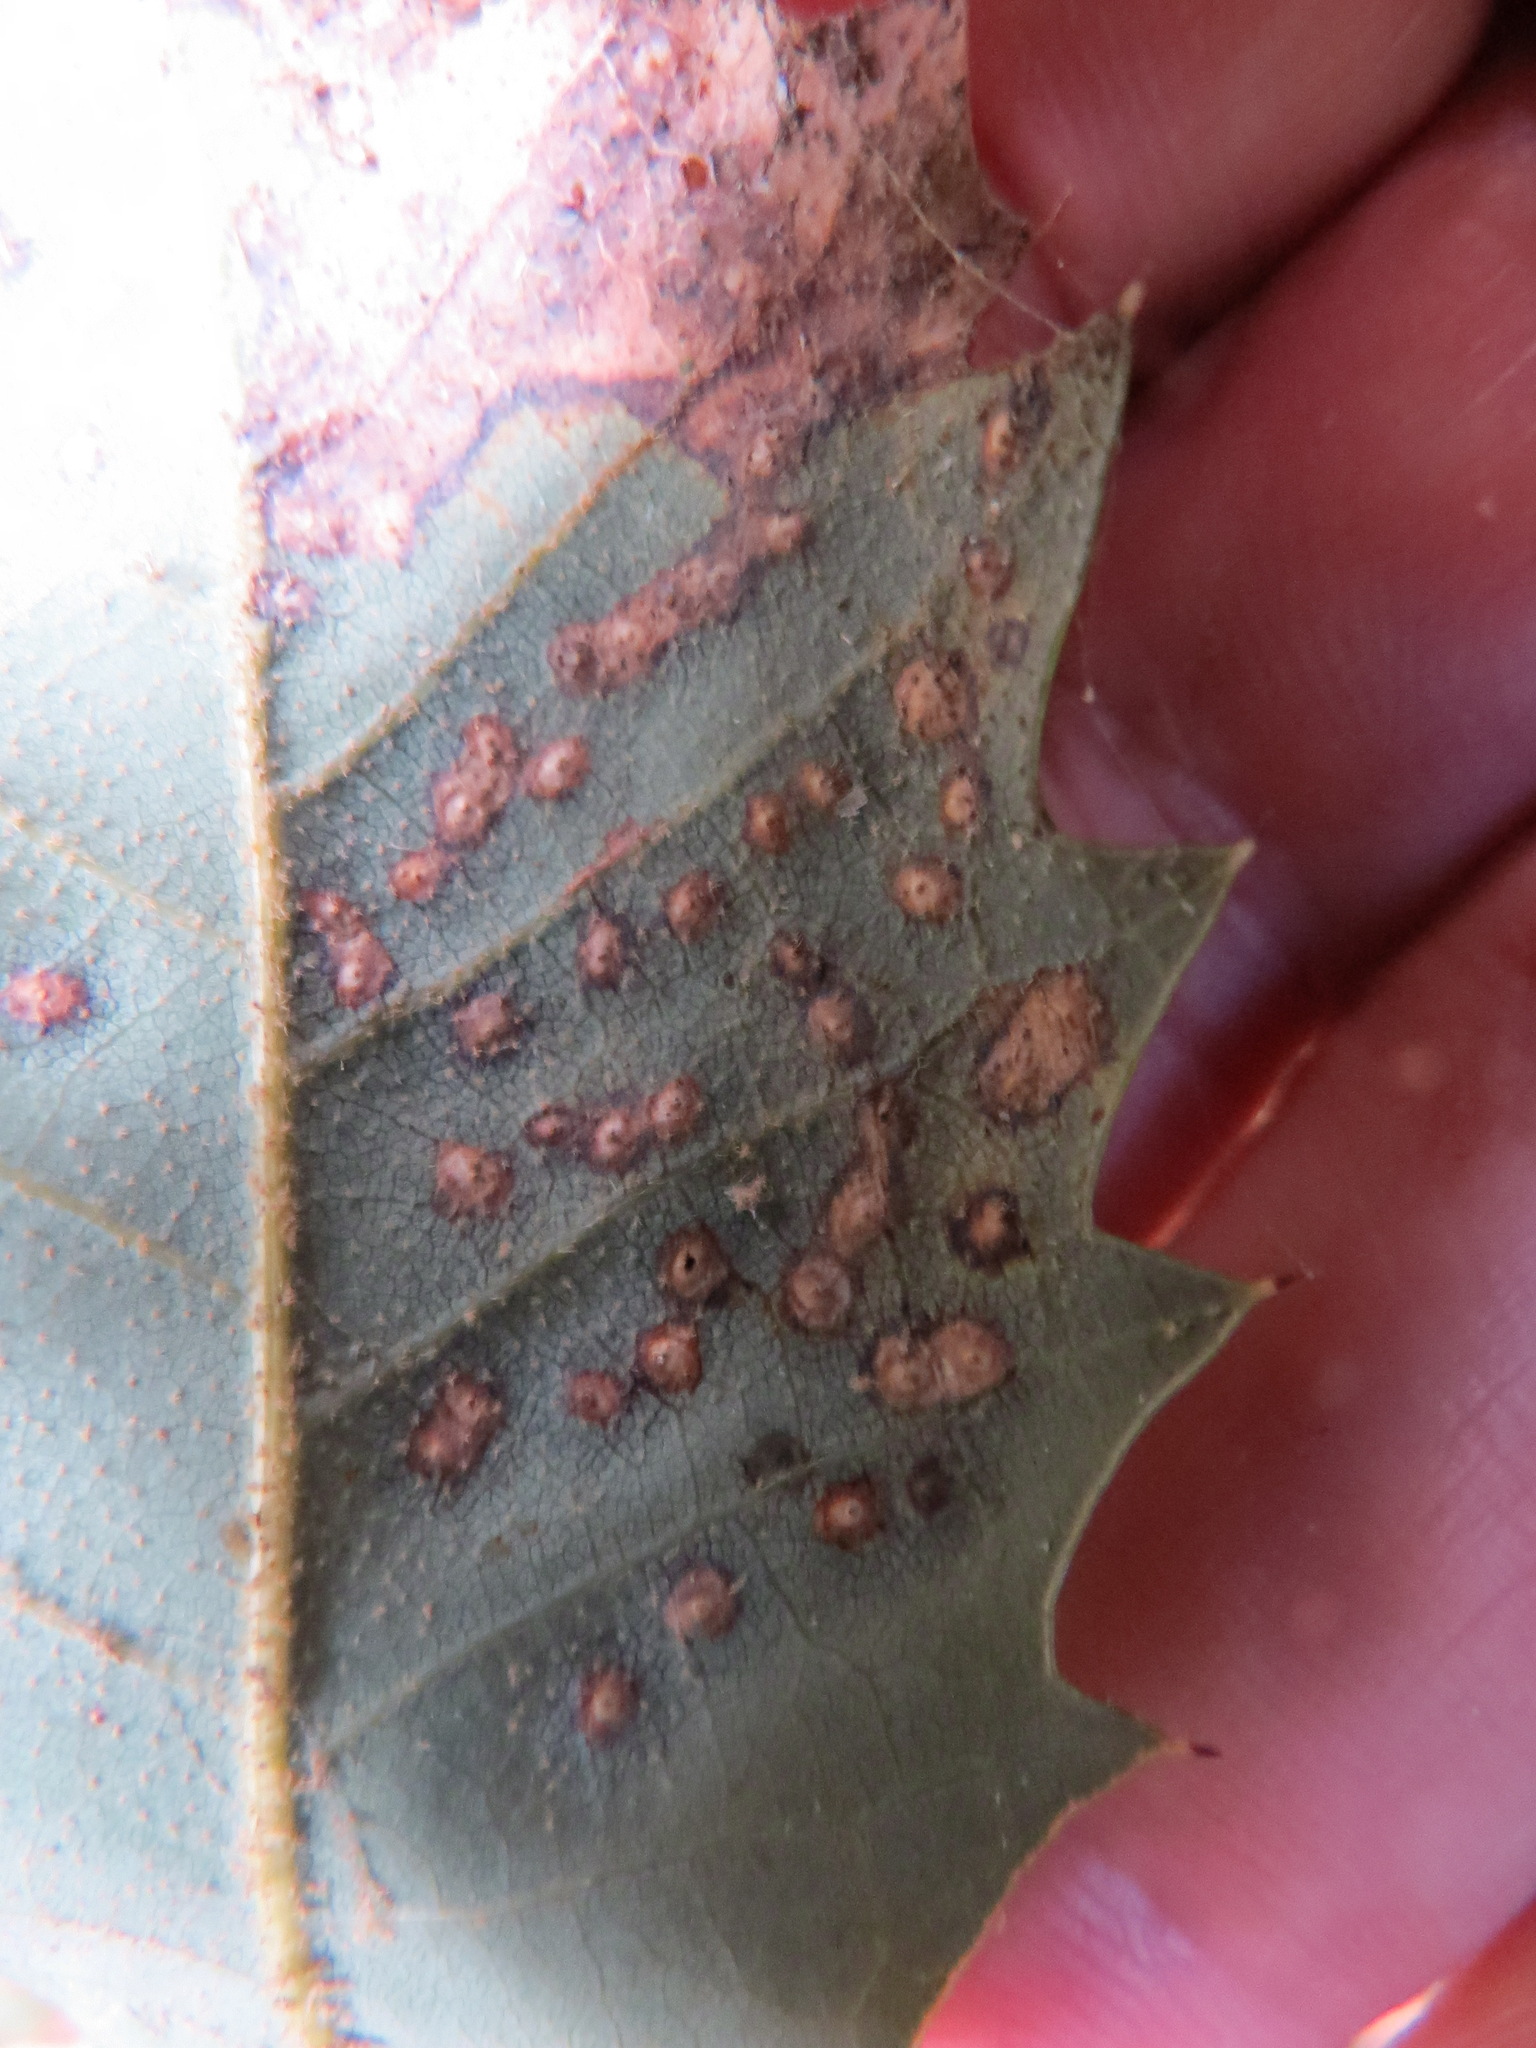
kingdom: Animalia
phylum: Arthropoda
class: Insecta
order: Hymenoptera
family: Cynipidae
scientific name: Cynipidae
